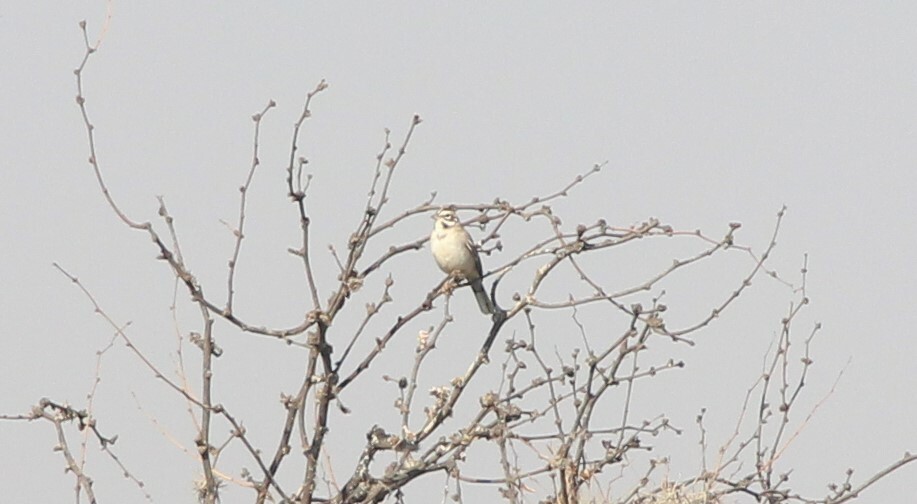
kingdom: Animalia
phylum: Chordata
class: Aves
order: Passeriformes
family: Passerellidae
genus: Chondestes
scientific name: Chondestes grammacus
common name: Lark sparrow
